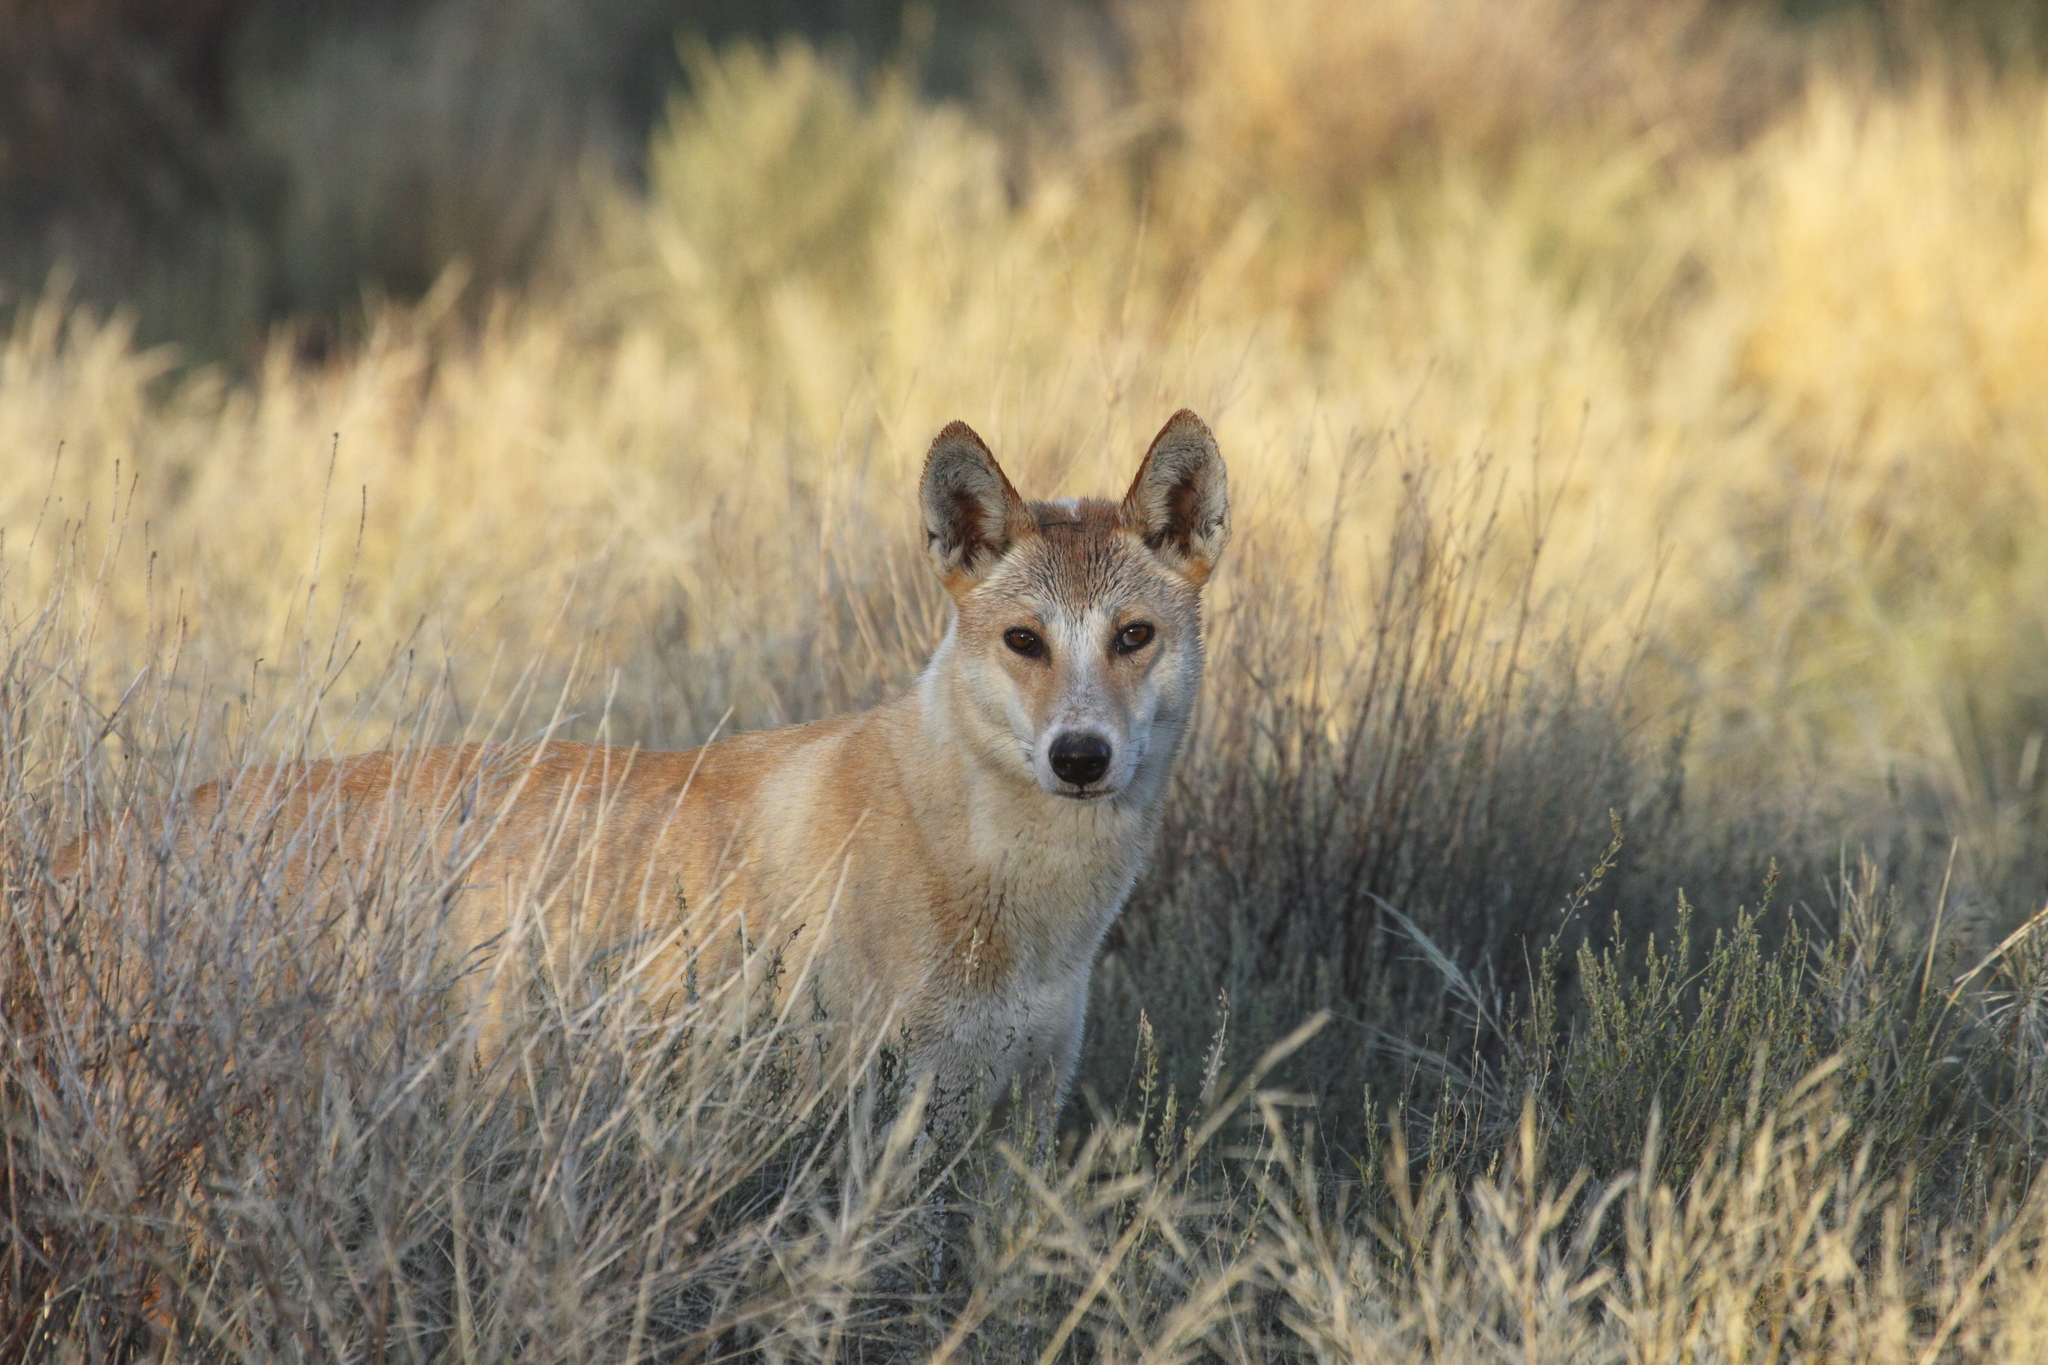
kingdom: Animalia
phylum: Chordata
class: Mammalia
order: Carnivora
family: Canidae
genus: Canis
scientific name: Canis lupus
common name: Gray wolf
